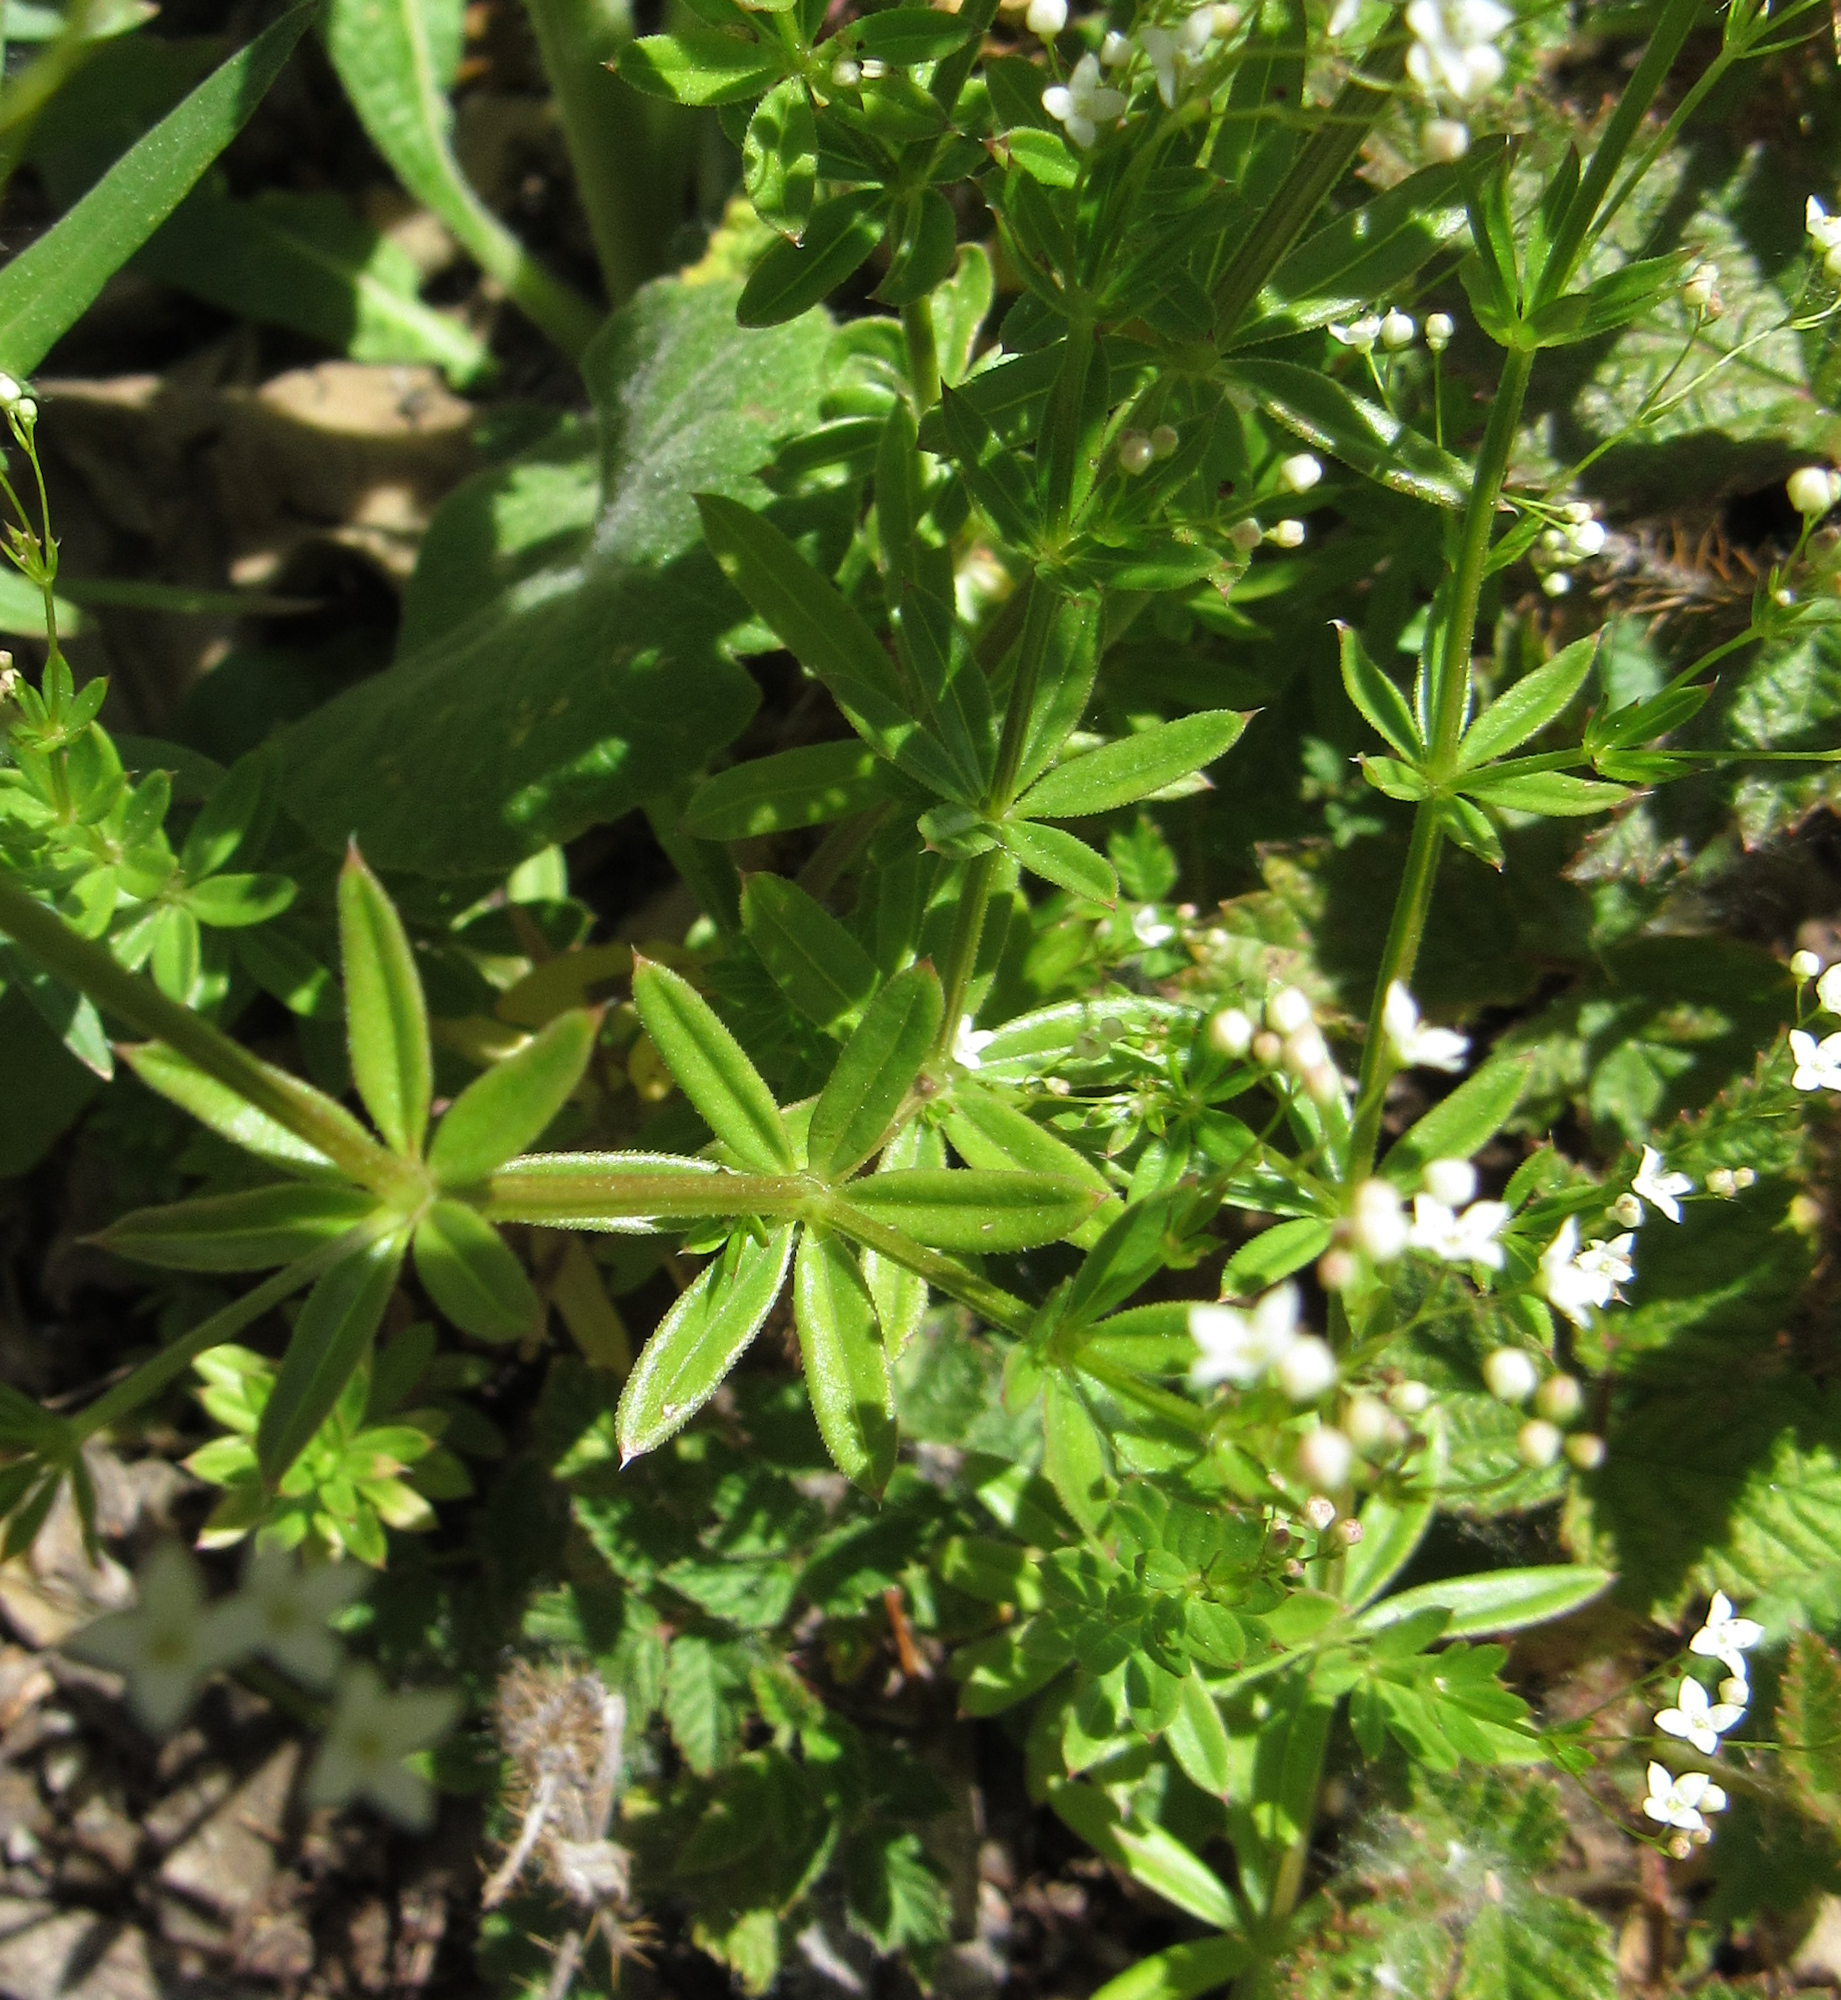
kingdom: Plantae
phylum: Tracheophyta
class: Magnoliopsida
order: Gentianales
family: Rubiaceae
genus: Galium
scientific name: Galium triflorum
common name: Fragrant bedstraw
